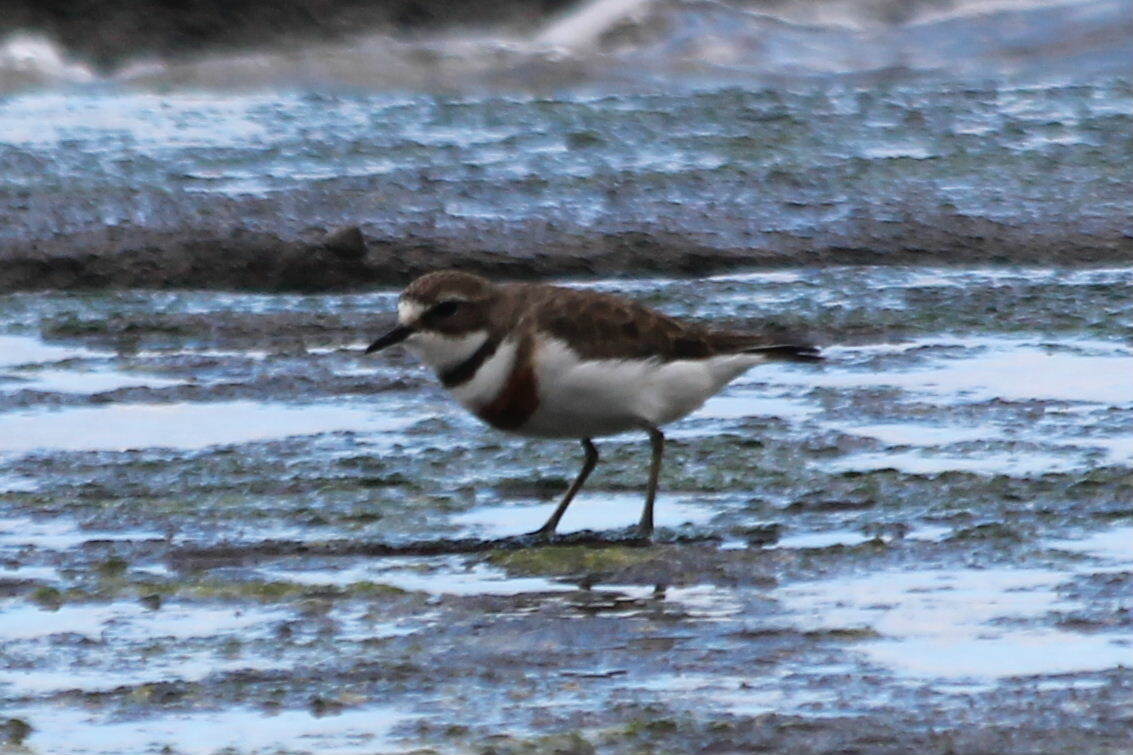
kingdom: Animalia
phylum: Chordata
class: Aves
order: Charadriiformes
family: Charadriidae
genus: Anarhynchus
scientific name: Anarhynchus
